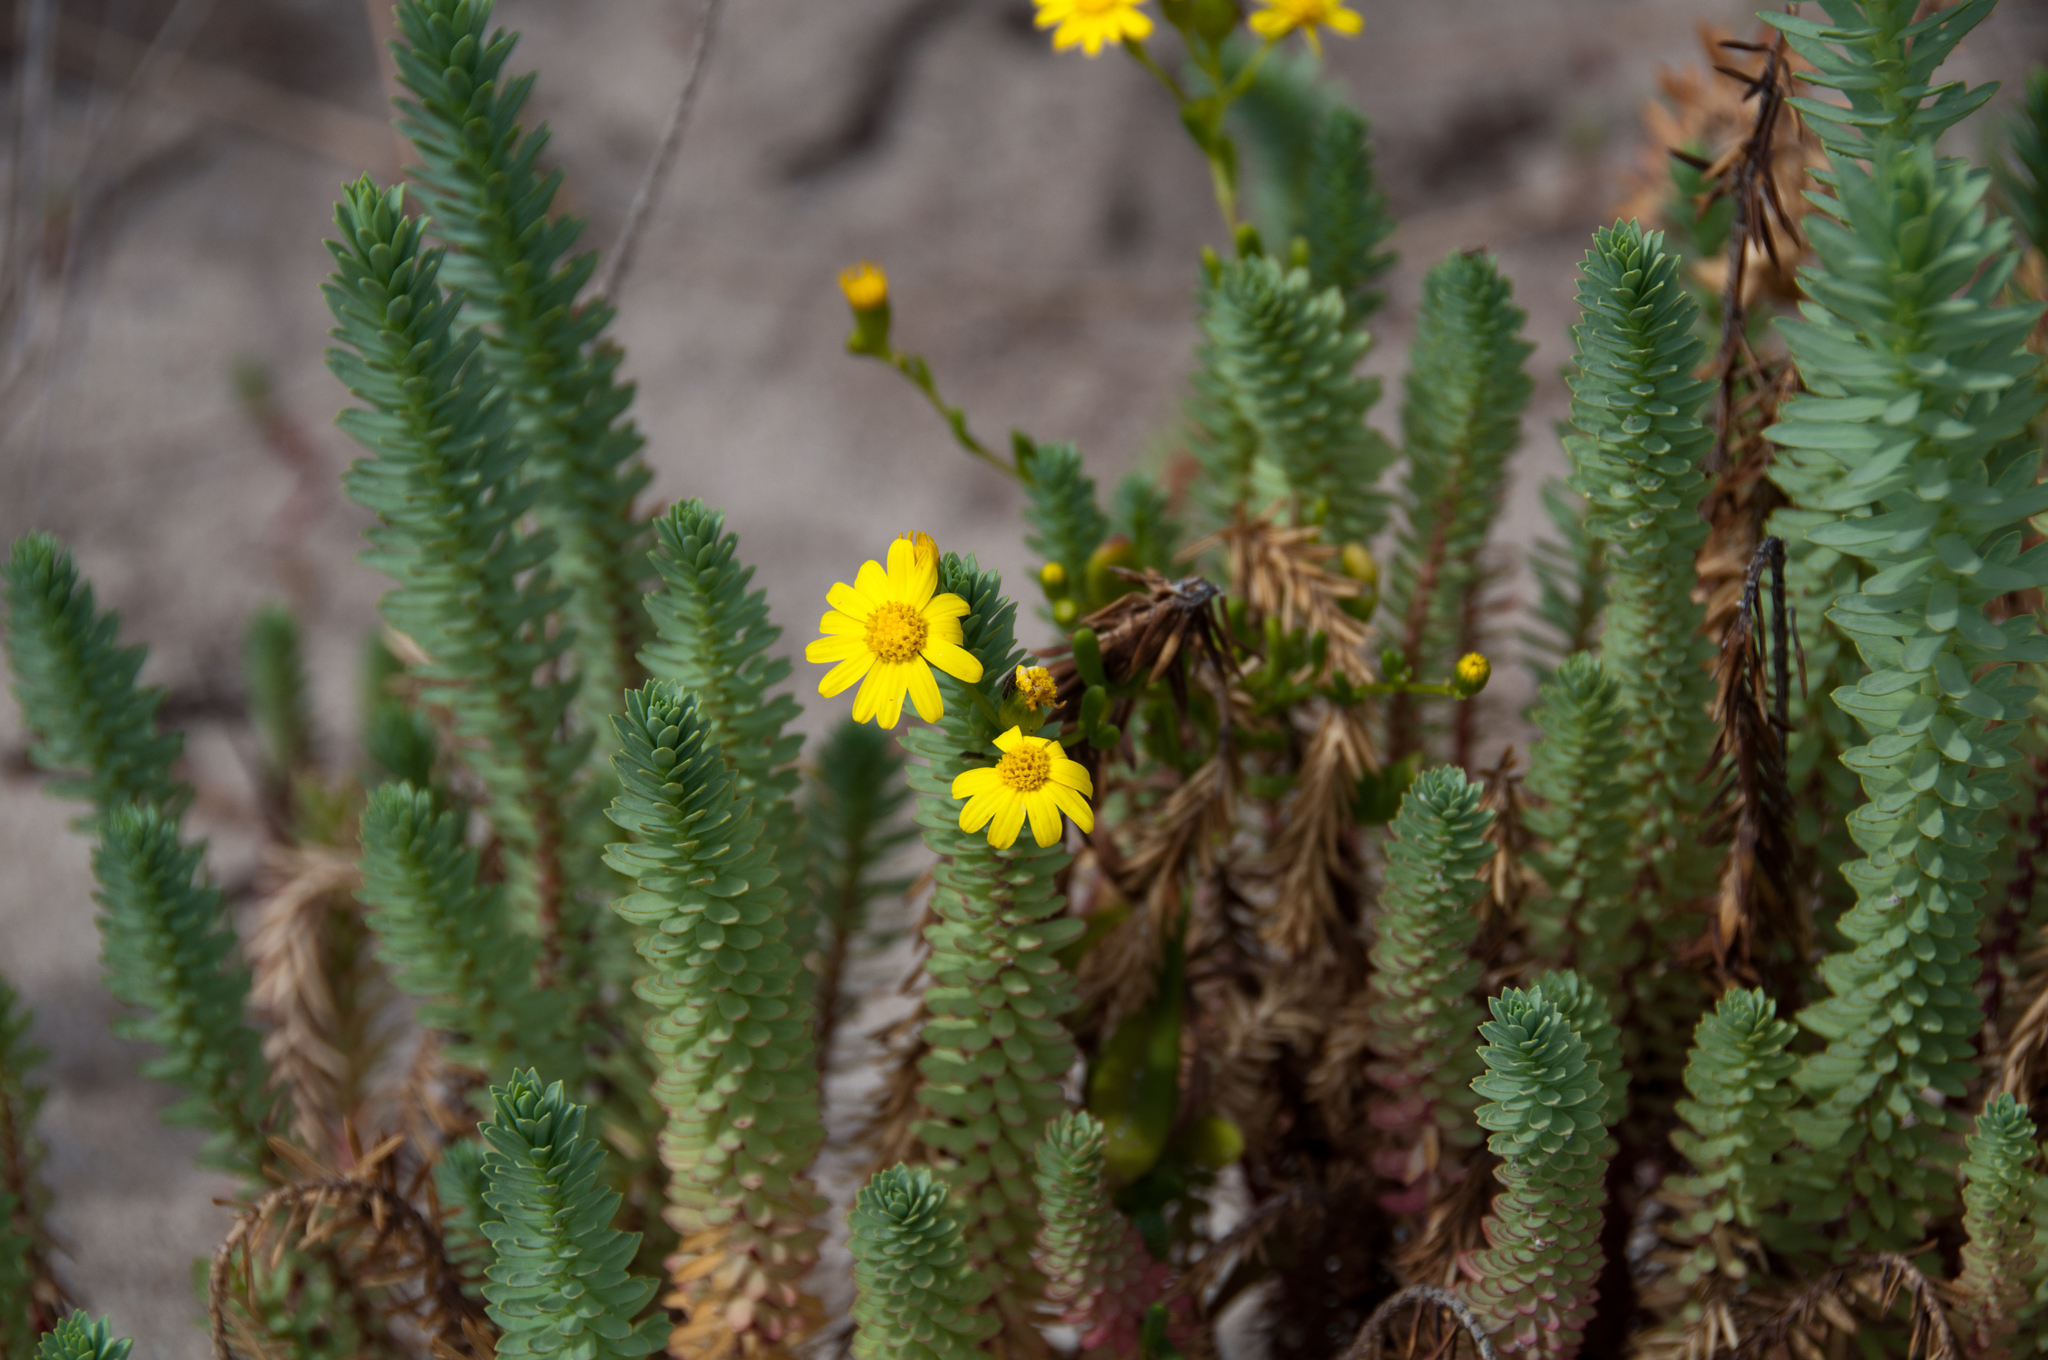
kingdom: Plantae
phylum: Tracheophyta
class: Magnoliopsida
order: Malpighiales
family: Euphorbiaceae
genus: Euphorbia
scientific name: Euphorbia paralias
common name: Sea spurge
